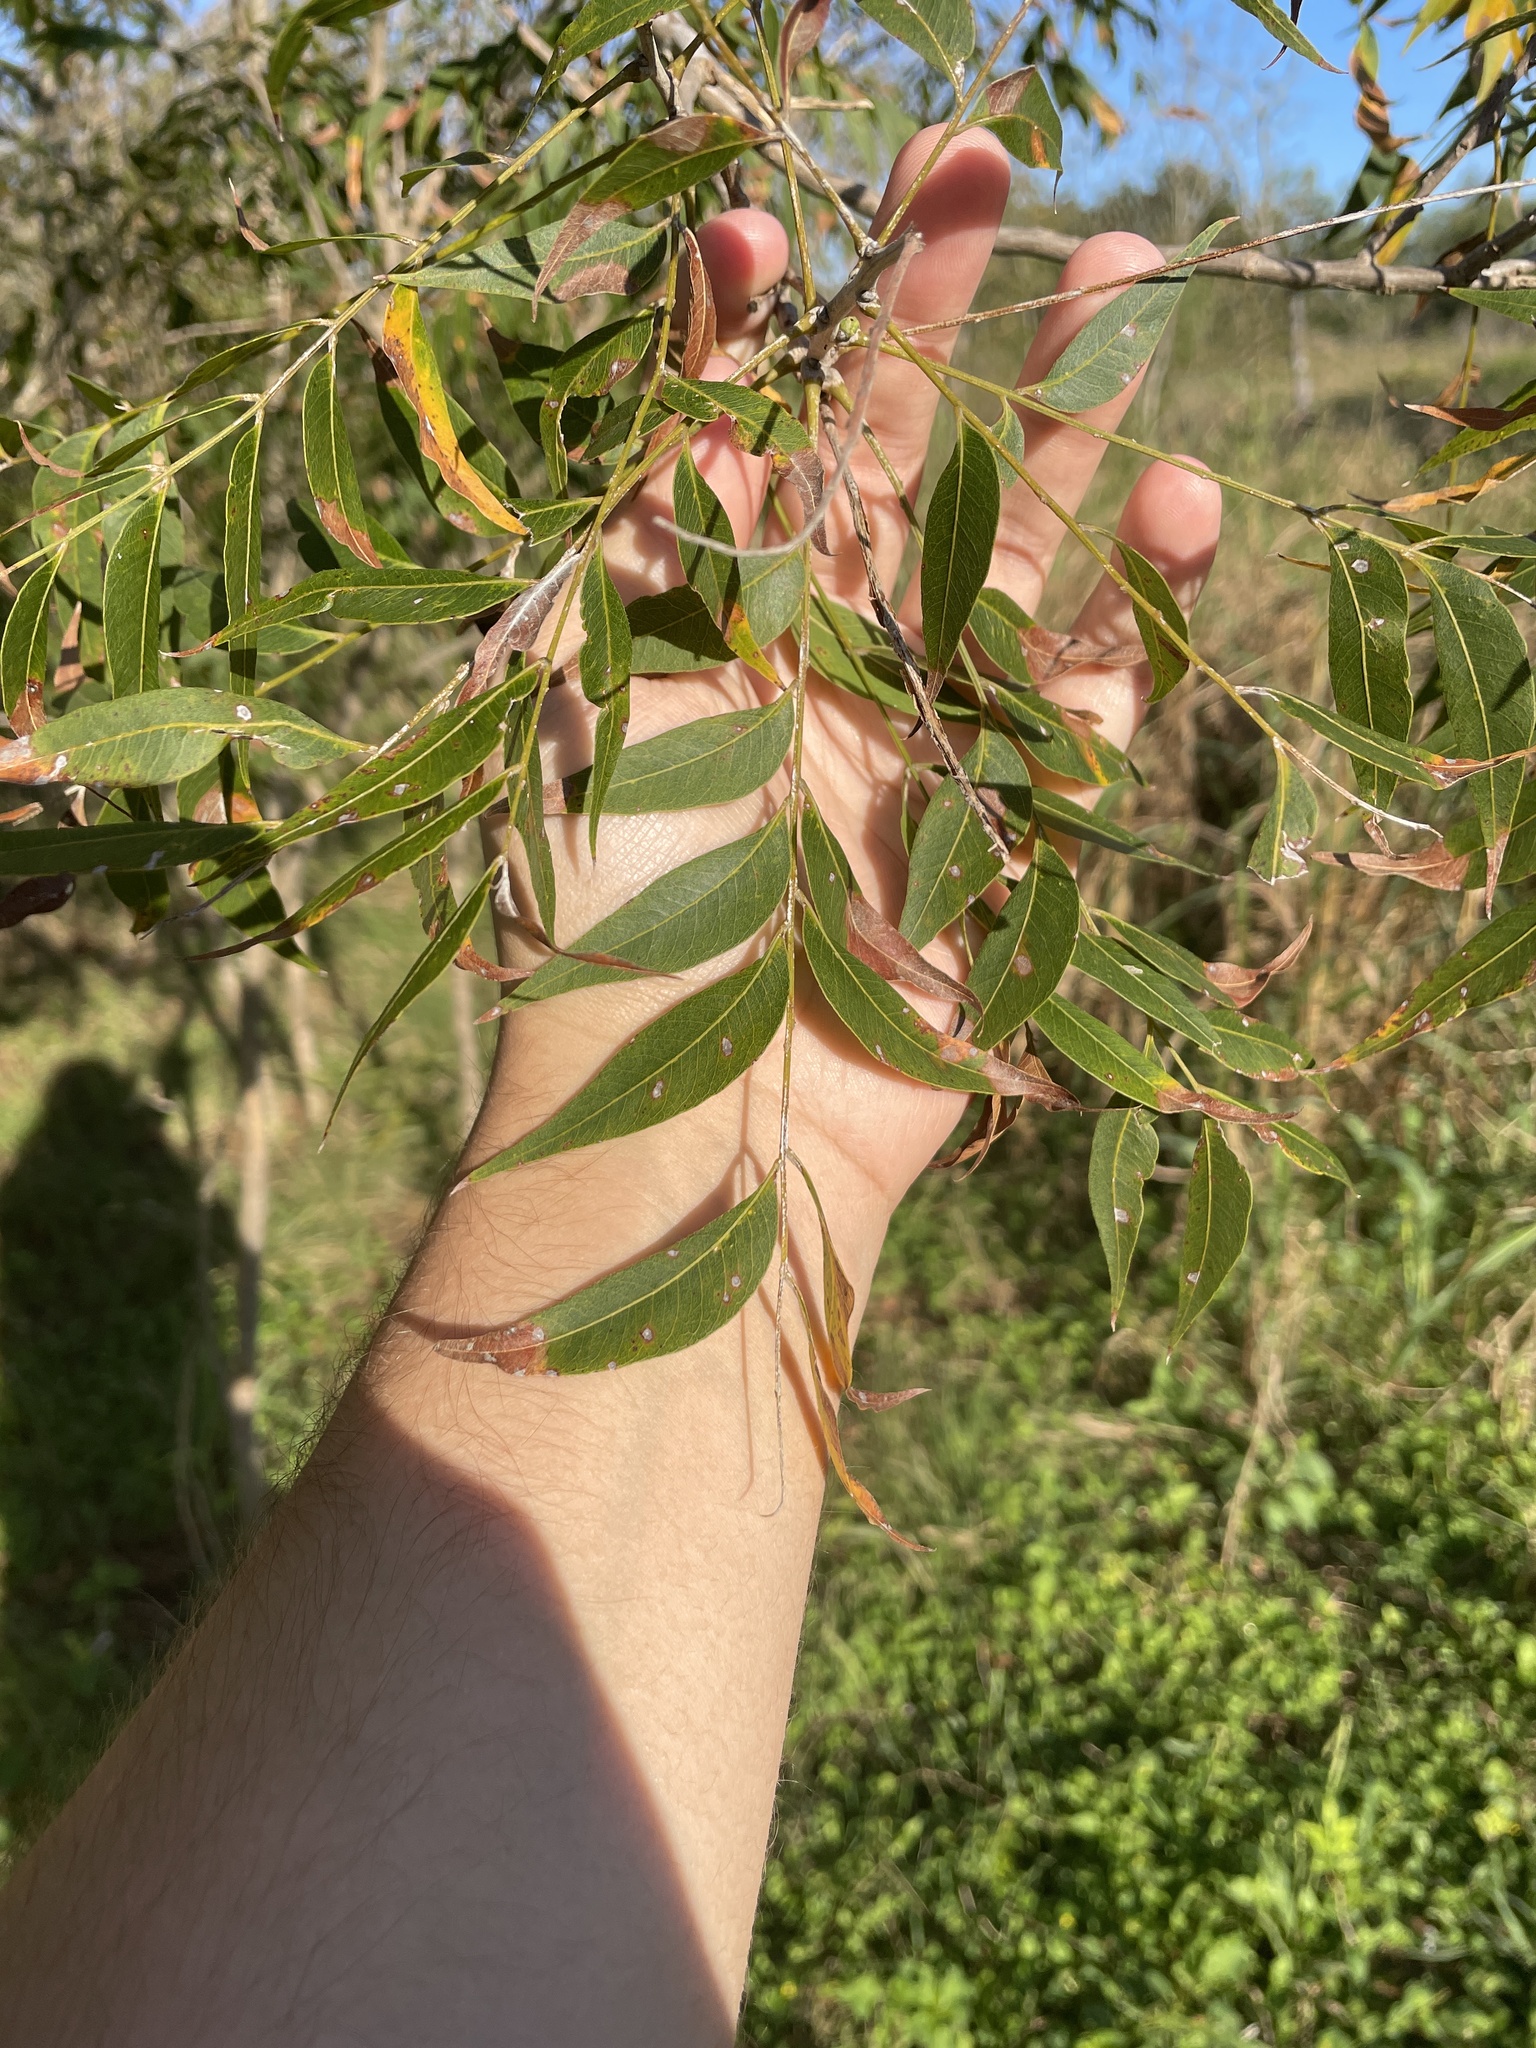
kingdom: Plantae
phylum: Tracheophyta
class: Magnoliopsida
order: Sapindales
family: Sapindaceae
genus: Sapindus
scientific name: Sapindus drummondii
